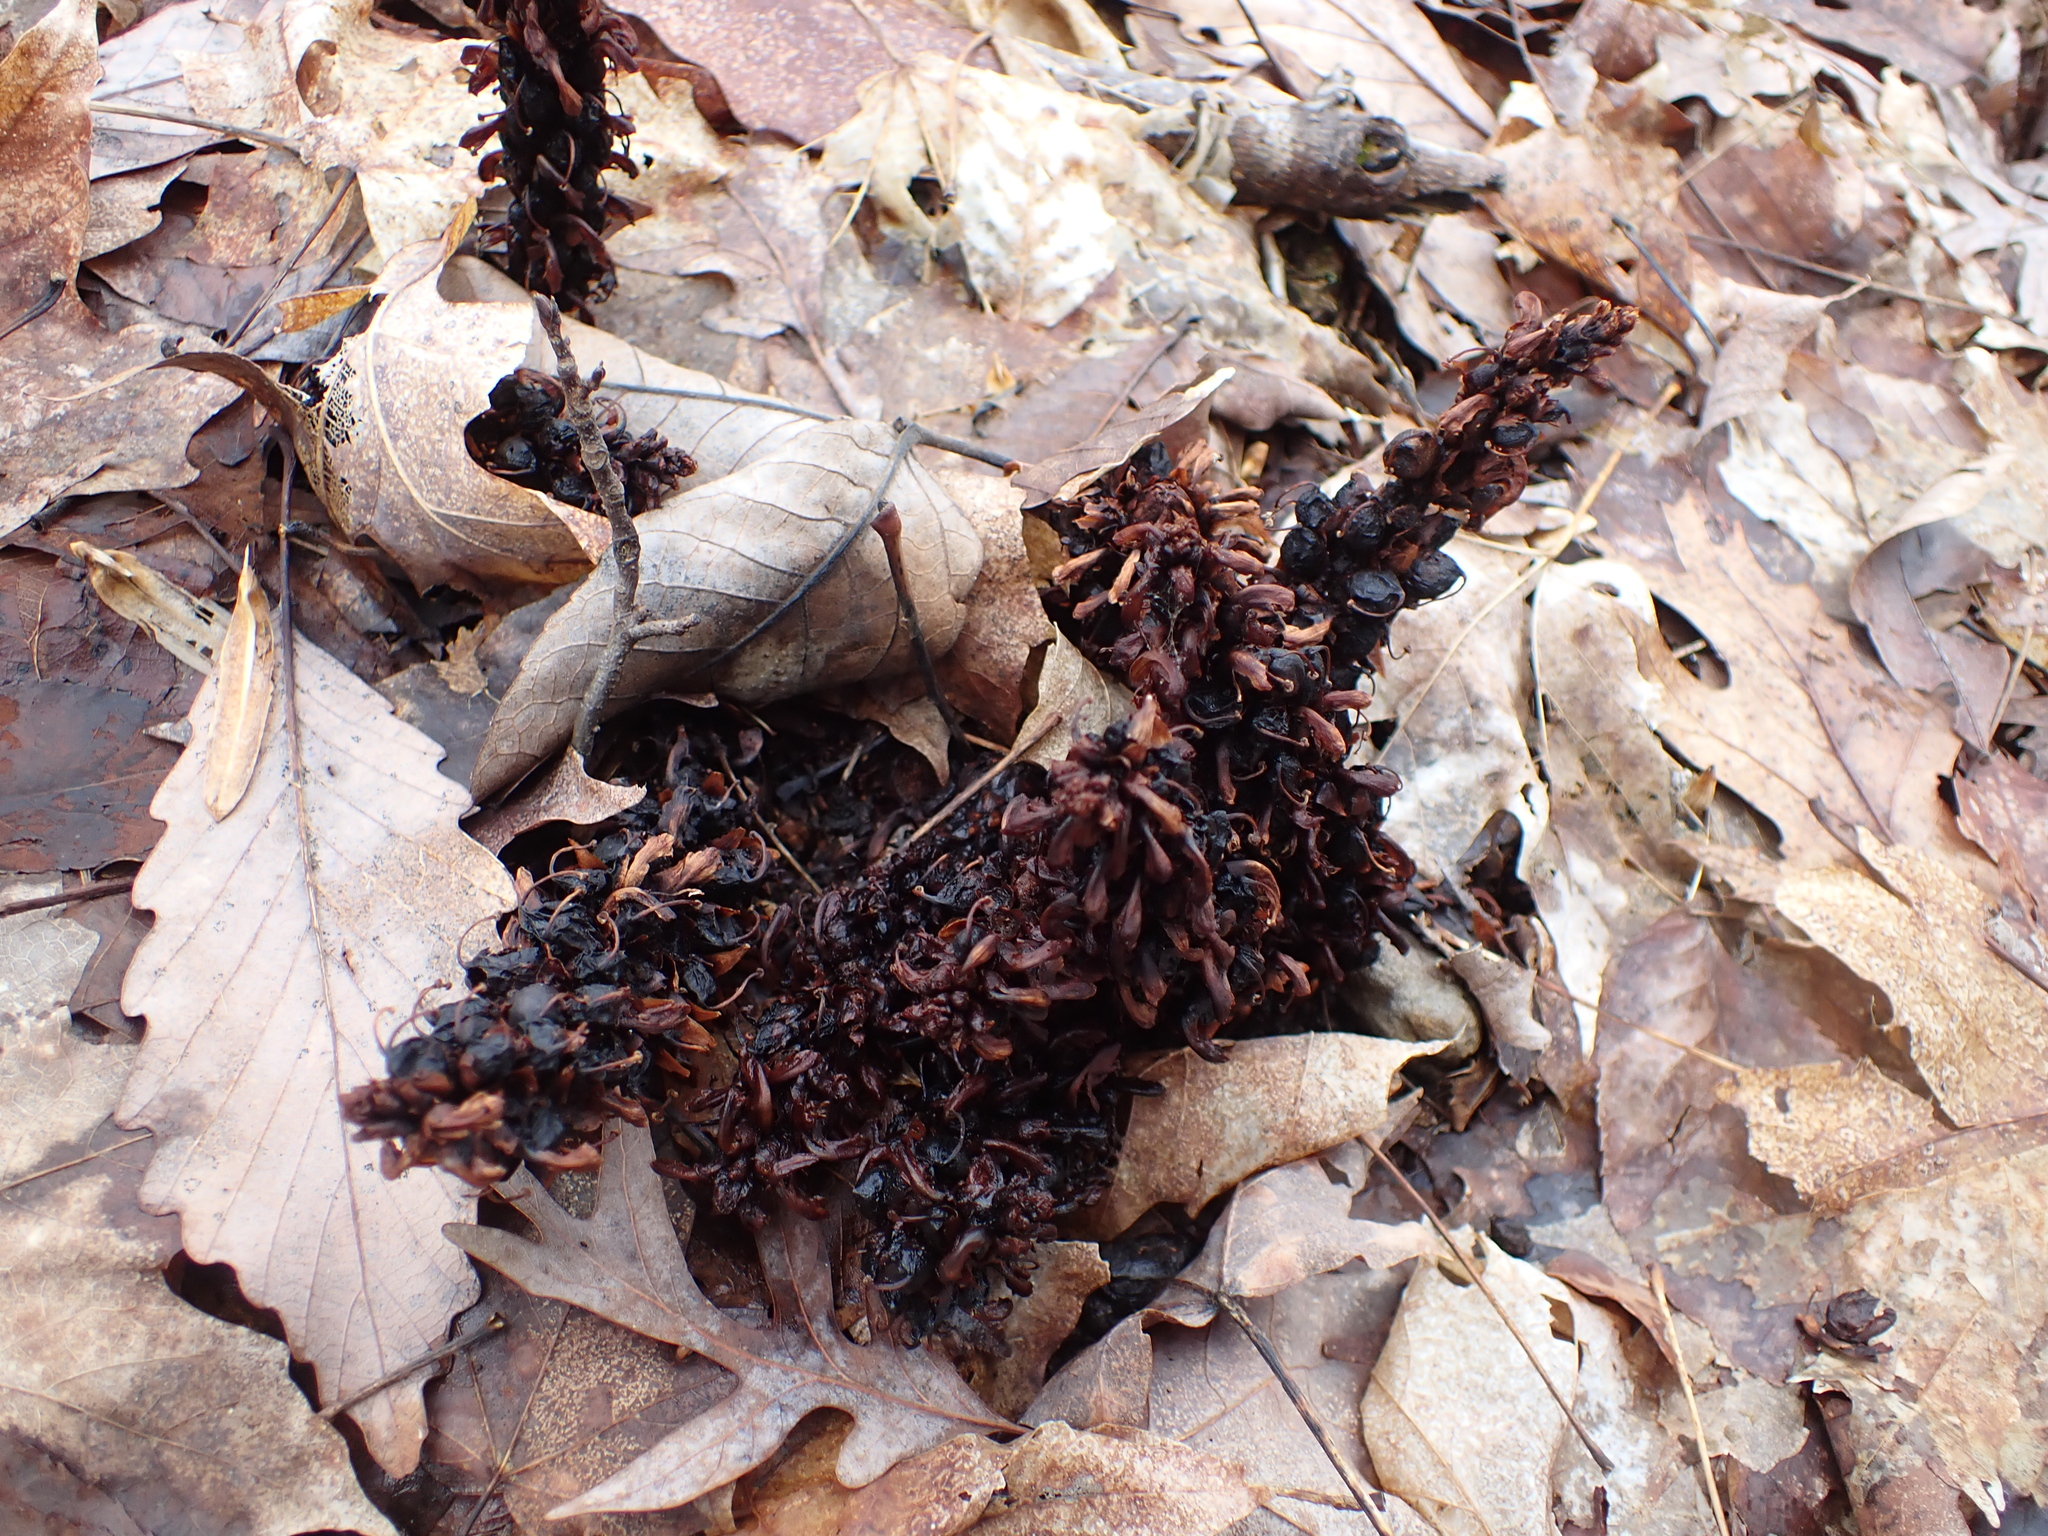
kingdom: Plantae
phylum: Tracheophyta
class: Magnoliopsida
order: Lamiales
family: Orobanchaceae
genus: Conopholis
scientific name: Conopholis americana
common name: American cancer-root
